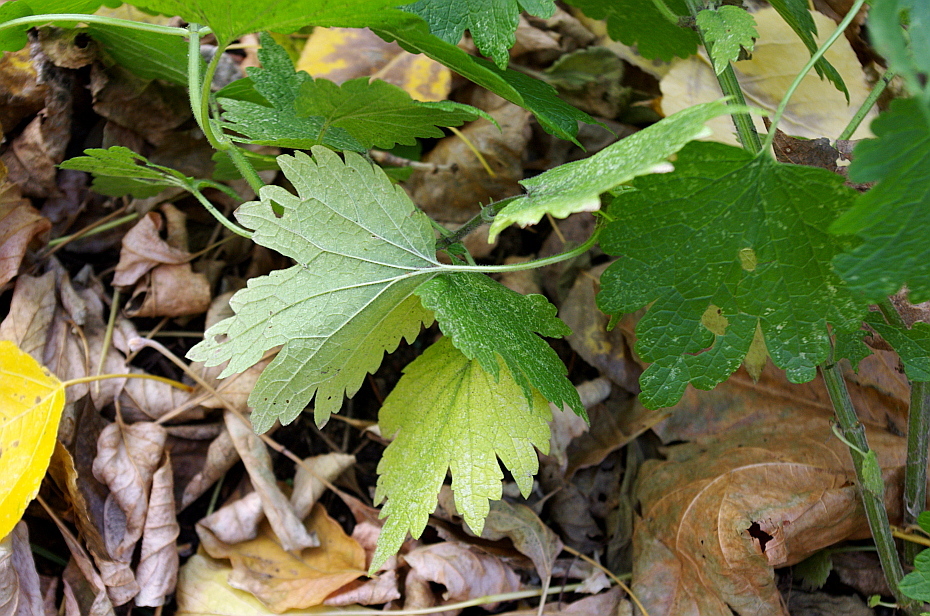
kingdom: Plantae
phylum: Tracheophyta
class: Magnoliopsida
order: Lamiales
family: Lamiaceae
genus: Leonurus
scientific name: Leonurus quinquelobatus
